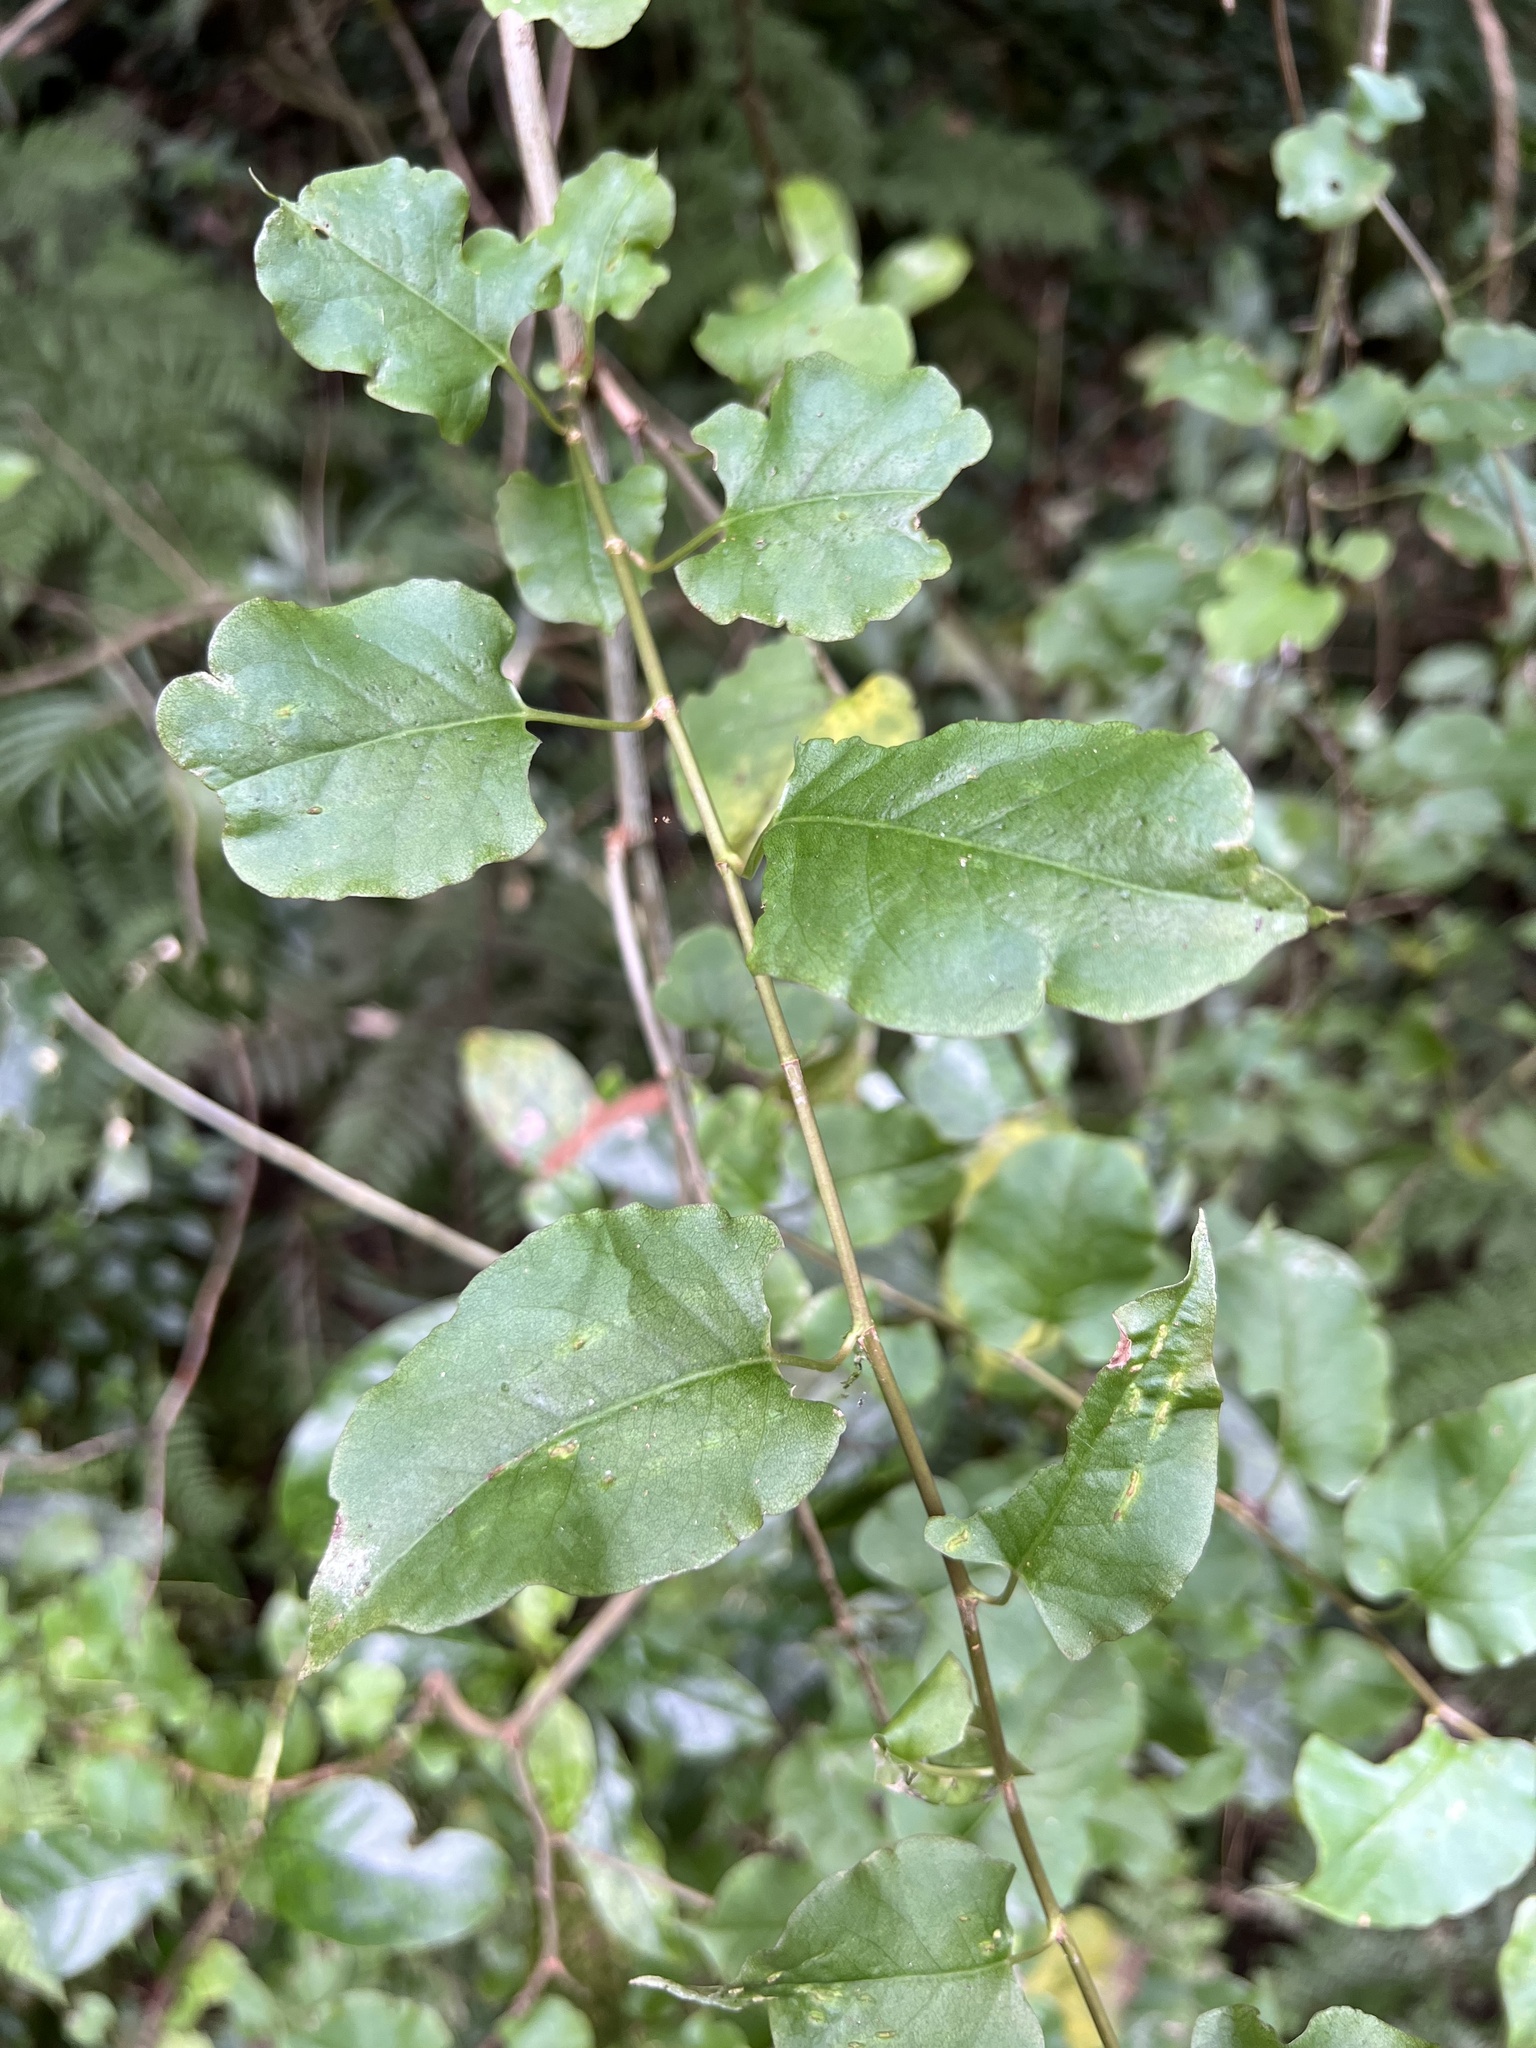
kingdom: Plantae
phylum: Tracheophyta
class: Magnoliopsida
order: Caryophyllales
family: Polygonaceae
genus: Muehlenbeckia
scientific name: Muehlenbeckia australis
